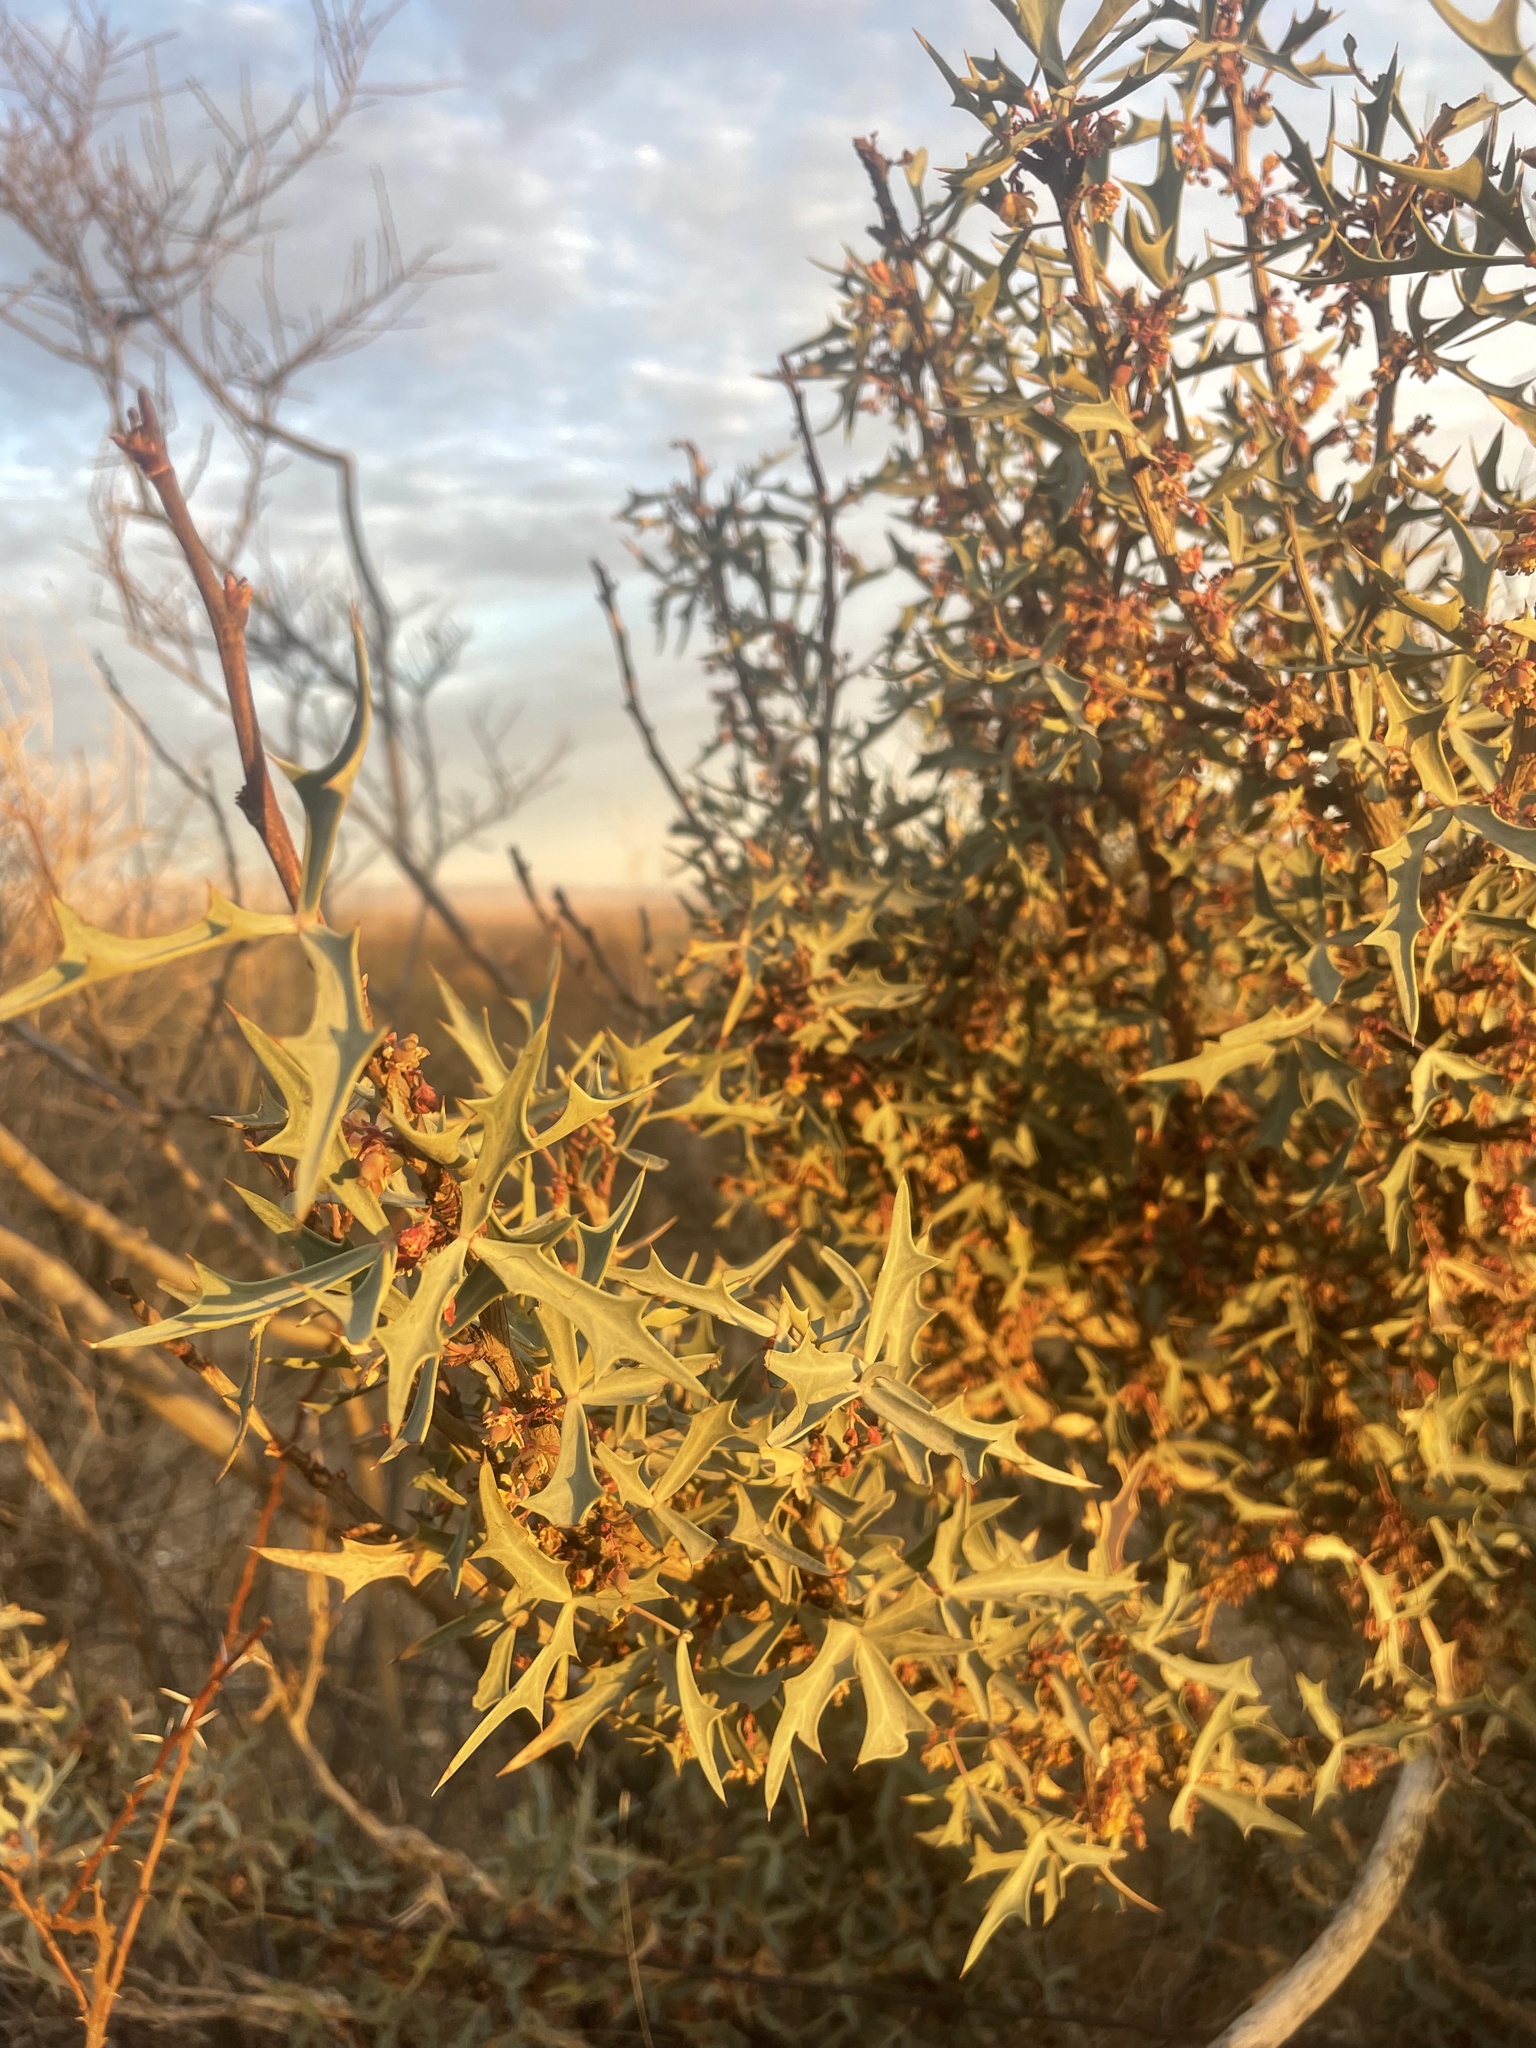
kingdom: Plantae
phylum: Tracheophyta
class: Magnoliopsida
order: Ranunculales
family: Berberidaceae
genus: Alloberberis
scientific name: Alloberberis trifoliolata
